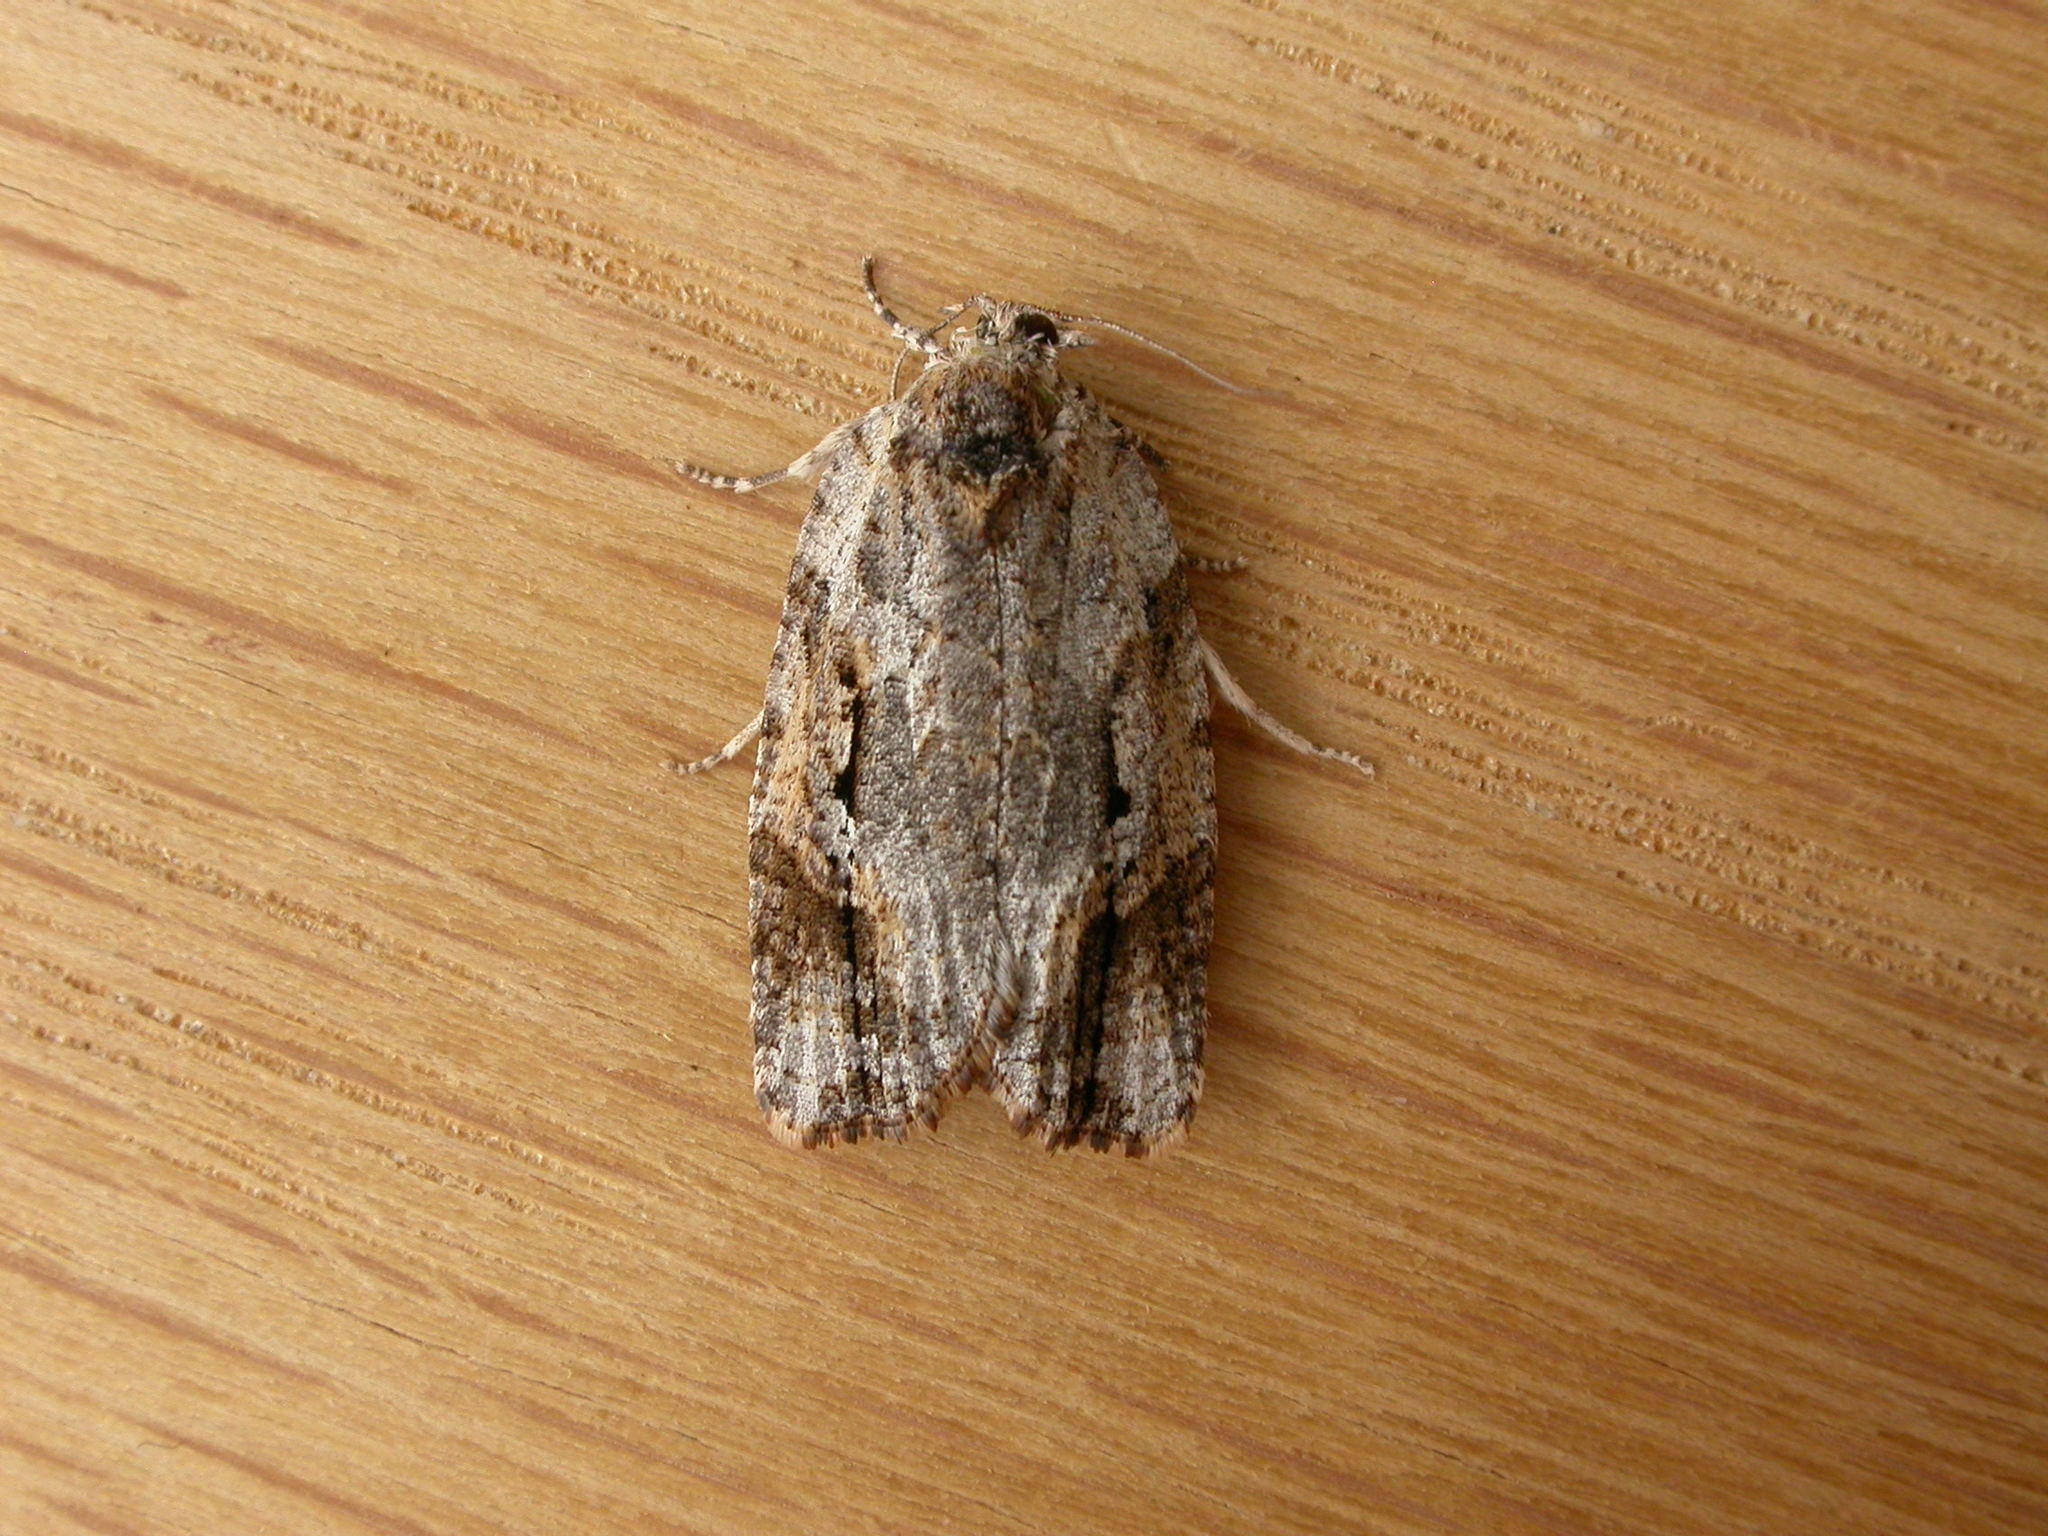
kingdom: Animalia
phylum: Arthropoda
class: Insecta
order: Lepidoptera
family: Tortricidae
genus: Thrincophora
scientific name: Thrincophora lignigerana
